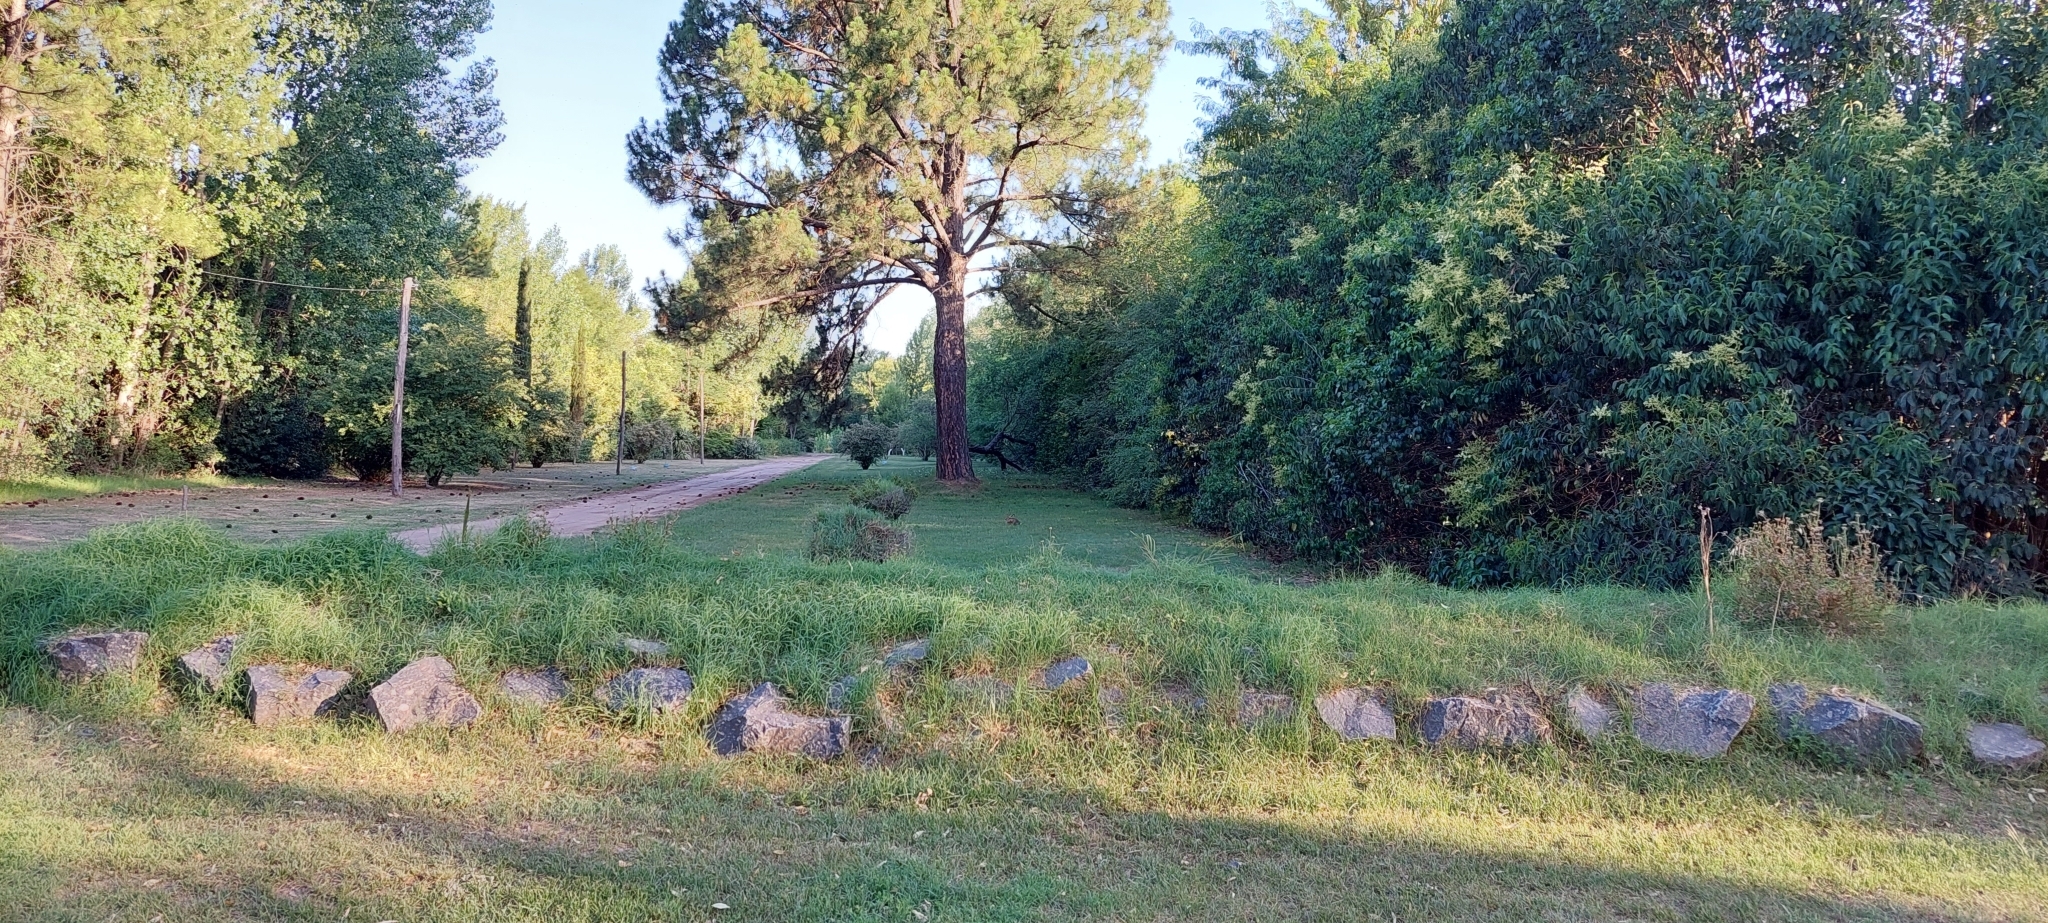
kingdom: Animalia
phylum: Chordata
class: Mammalia
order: Lagomorpha
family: Leporidae
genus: Lepus
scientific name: Lepus europaeus
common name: European hare
